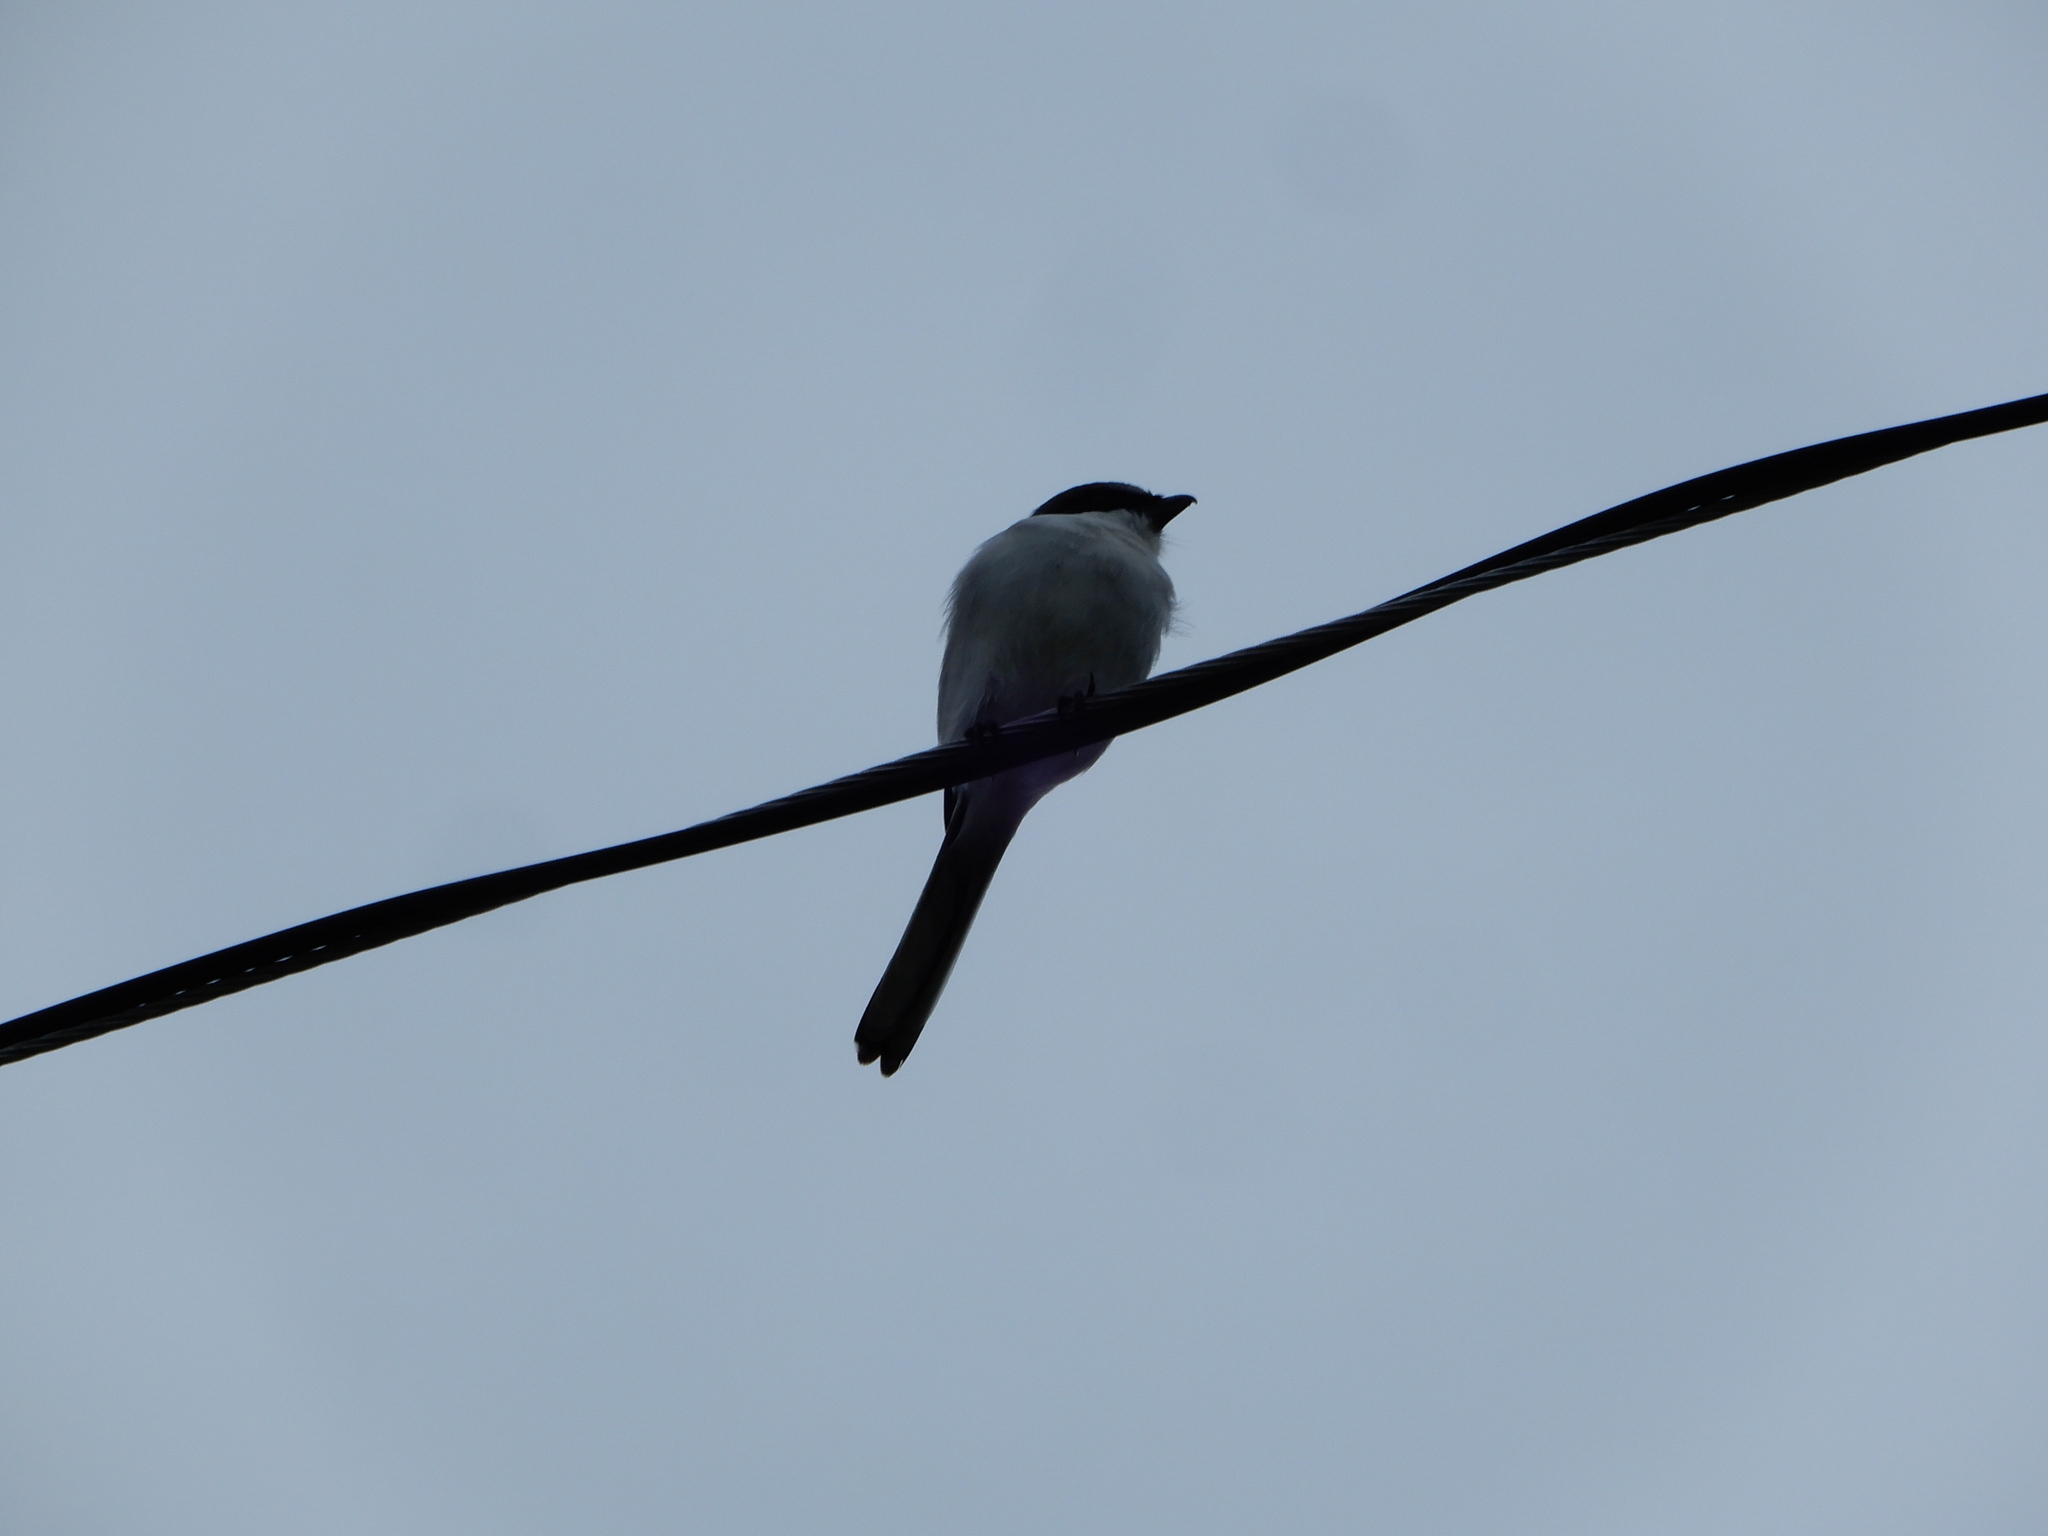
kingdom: Animalia
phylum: Chordata
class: Aves
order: Passeriformes
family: Laniidae
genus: Lanius
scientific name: Lanius ludovicianus
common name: Loggerhead shrike
